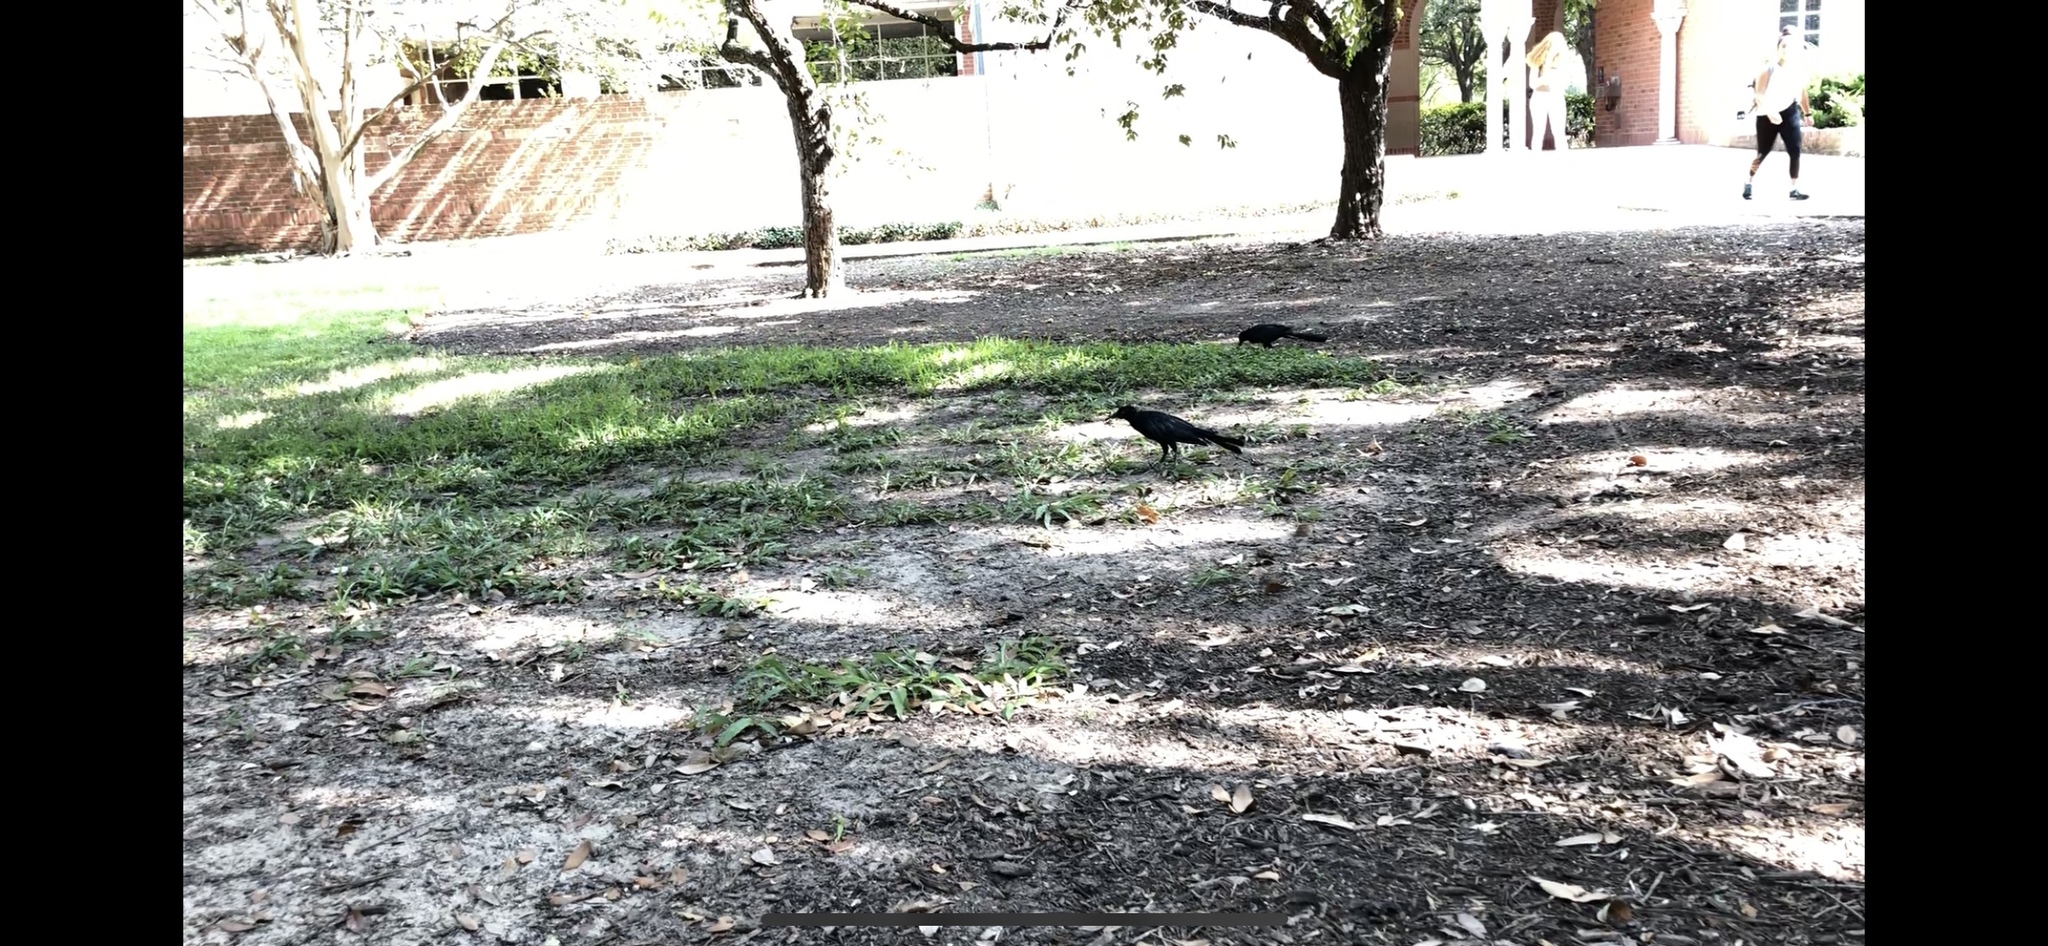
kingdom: Animalia
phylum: Chordata
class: Aves
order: Passeriformes
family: Icteridae
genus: Quiscalus
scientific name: Quiscalus mexicanus
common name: Great-tailed grackle
